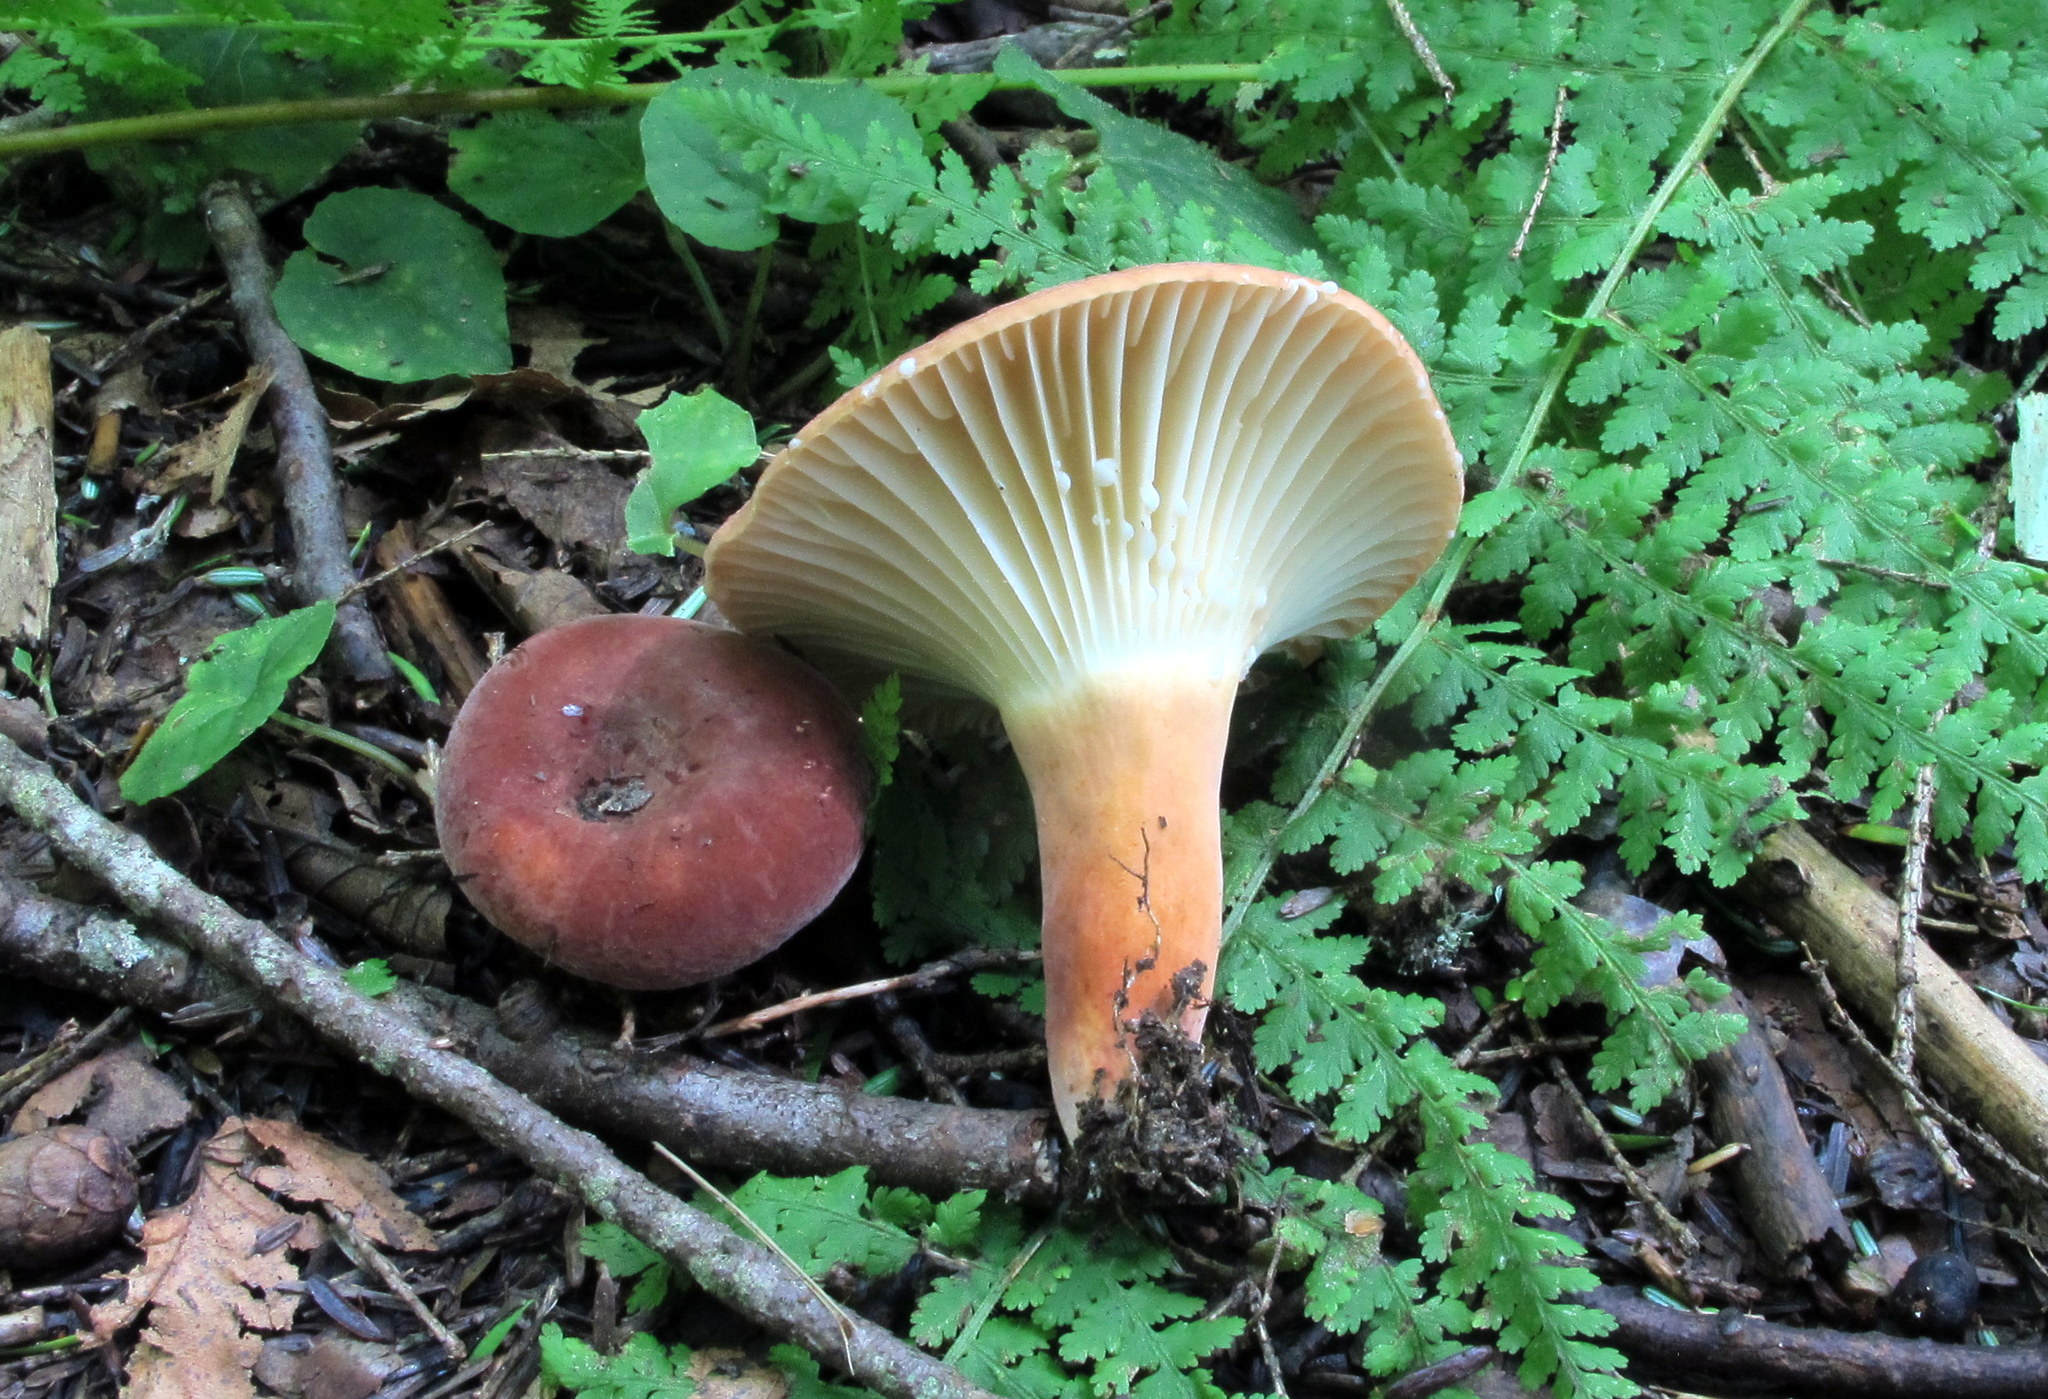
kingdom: Fungi
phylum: Basidiomycota
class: Agaricomycetes
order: Russulales
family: Russulaceae
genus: Lactarius
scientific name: Lactarius hygrophoroides
